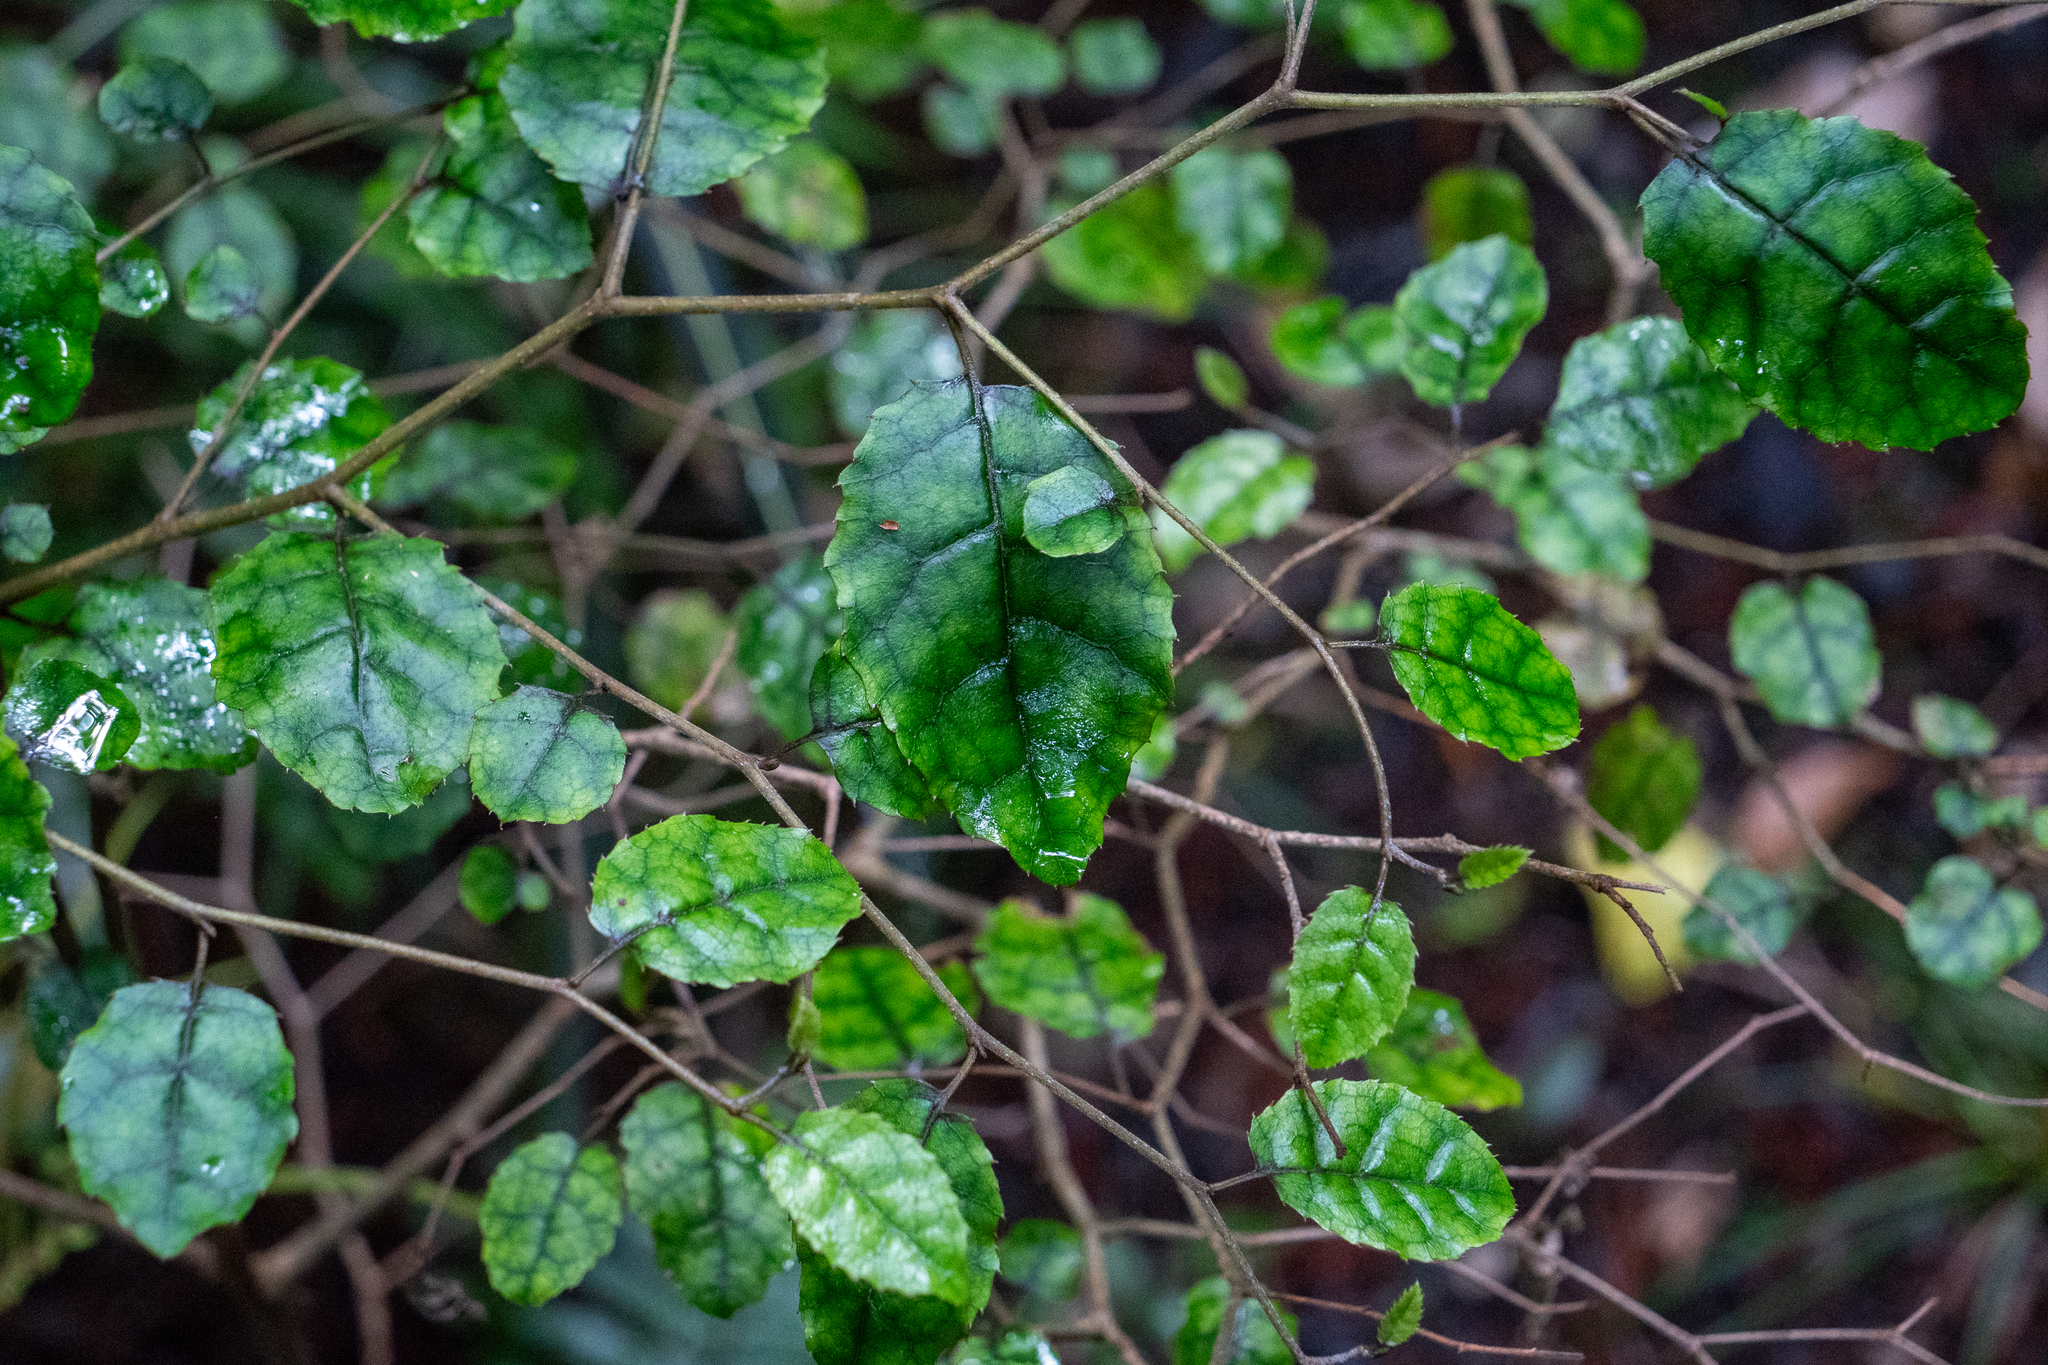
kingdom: Plantae
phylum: Tracheophyta
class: Magnoliopsida
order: Asterales
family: Rousseaceae
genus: Carpodetus
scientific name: Carpodetus serratus
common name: White mapau
